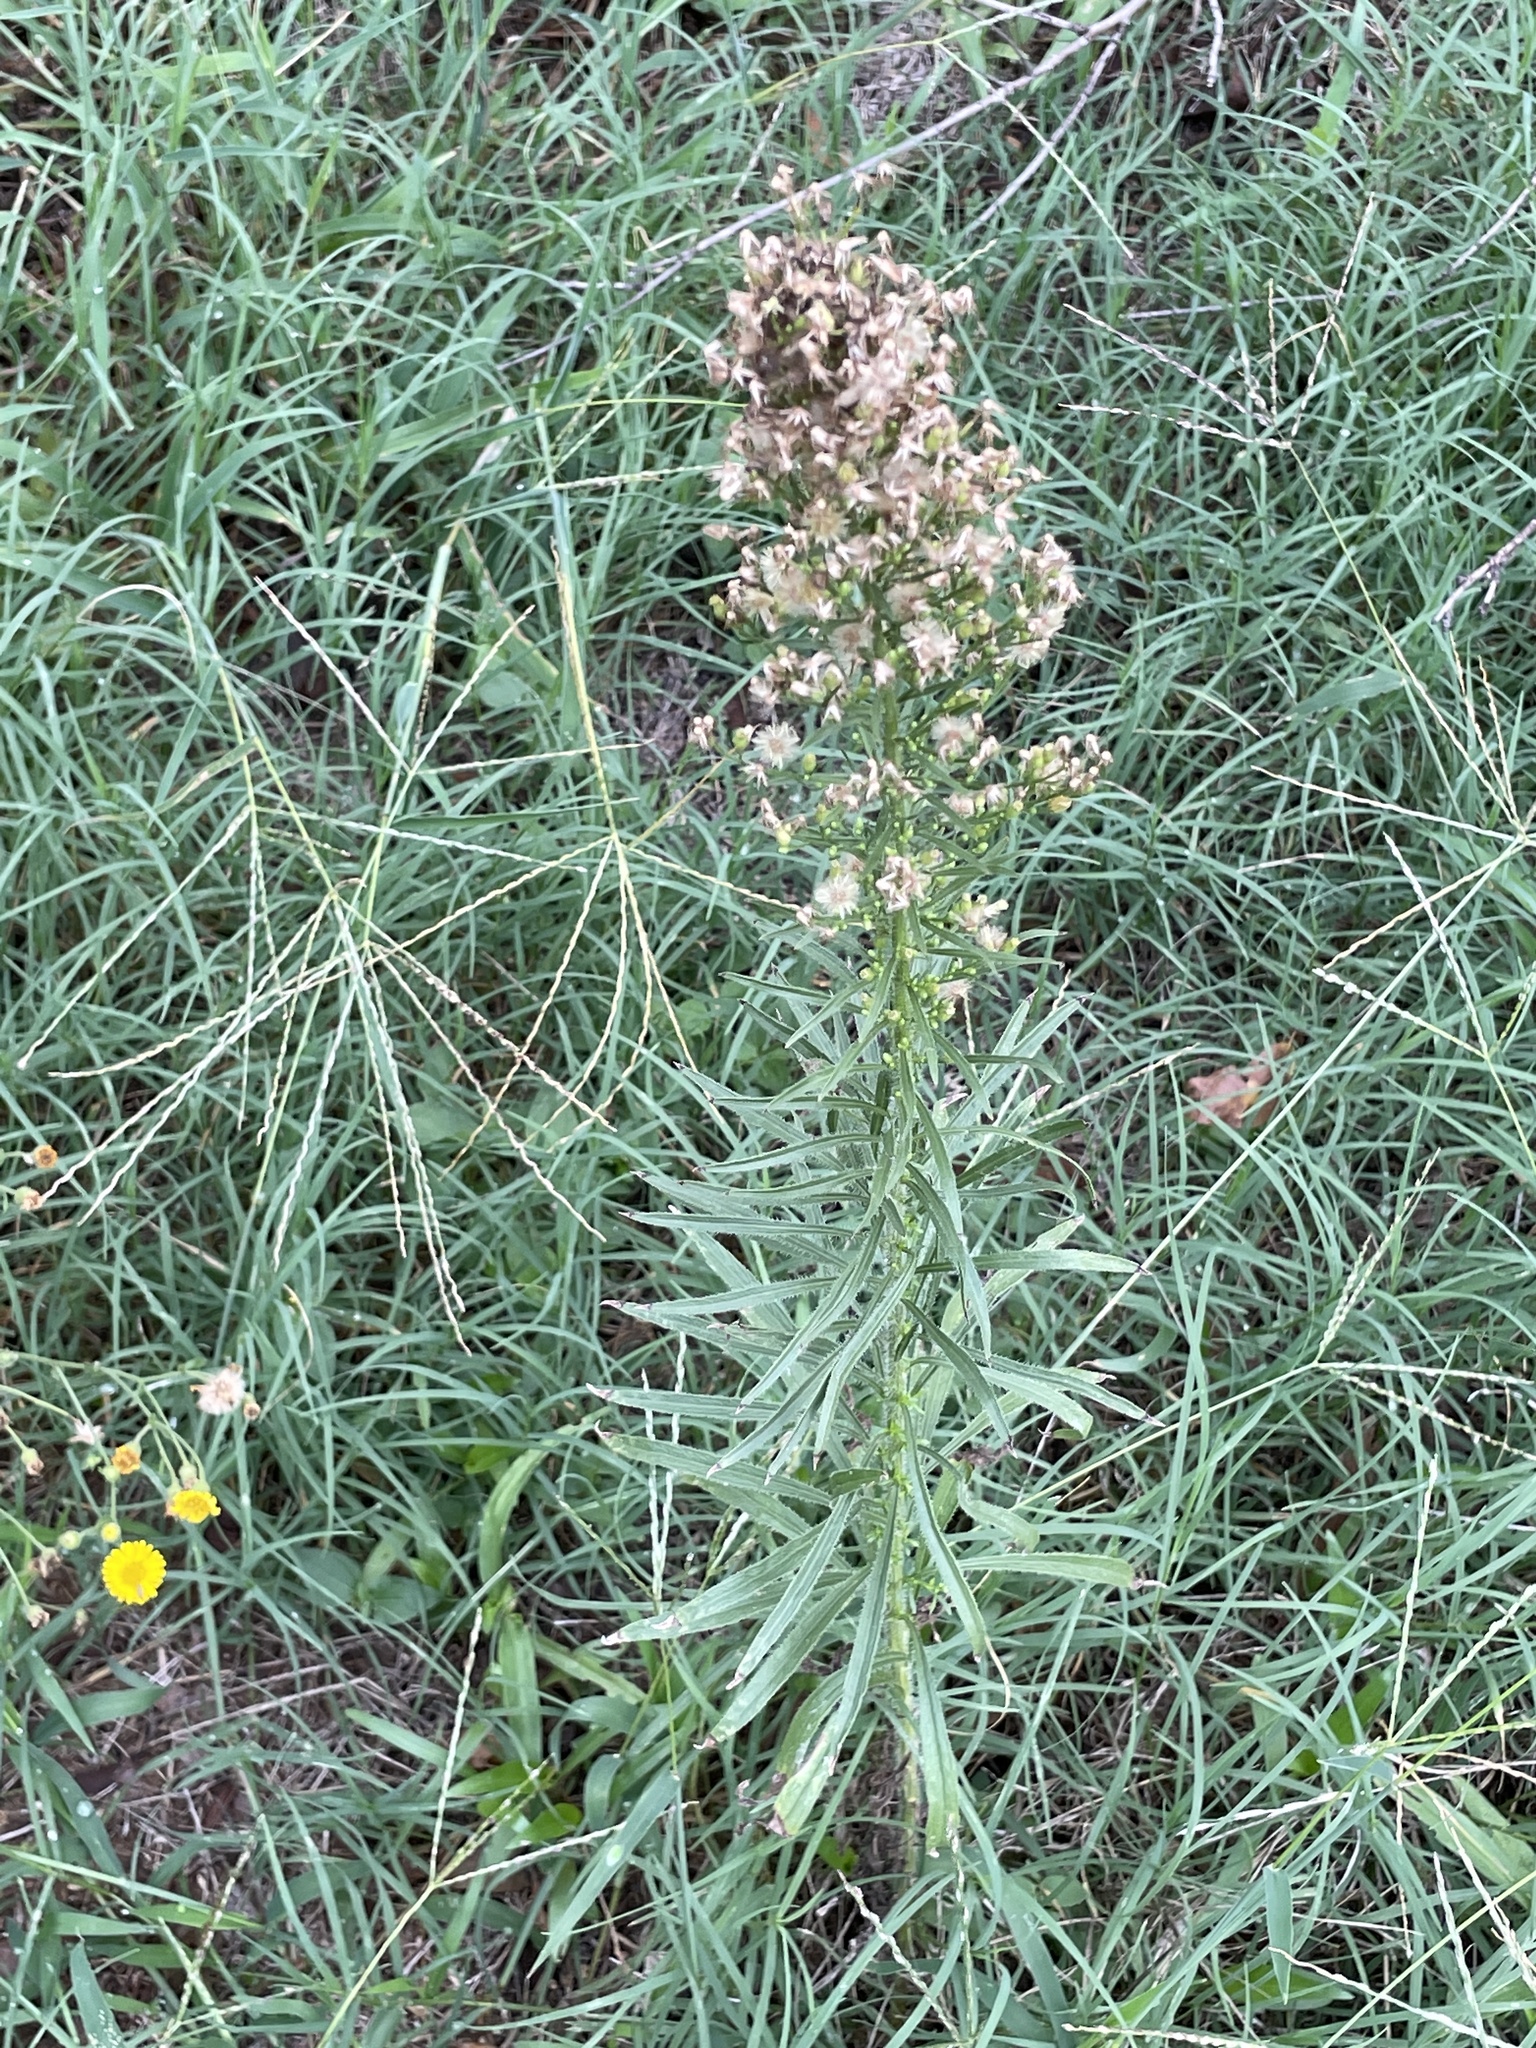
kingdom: Plantae
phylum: Tracheophyta
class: Magnoliopsida
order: Asterales
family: Asteraceae
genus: Erigeron
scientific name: Erigeron canadensis
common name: Canadian fleabane
